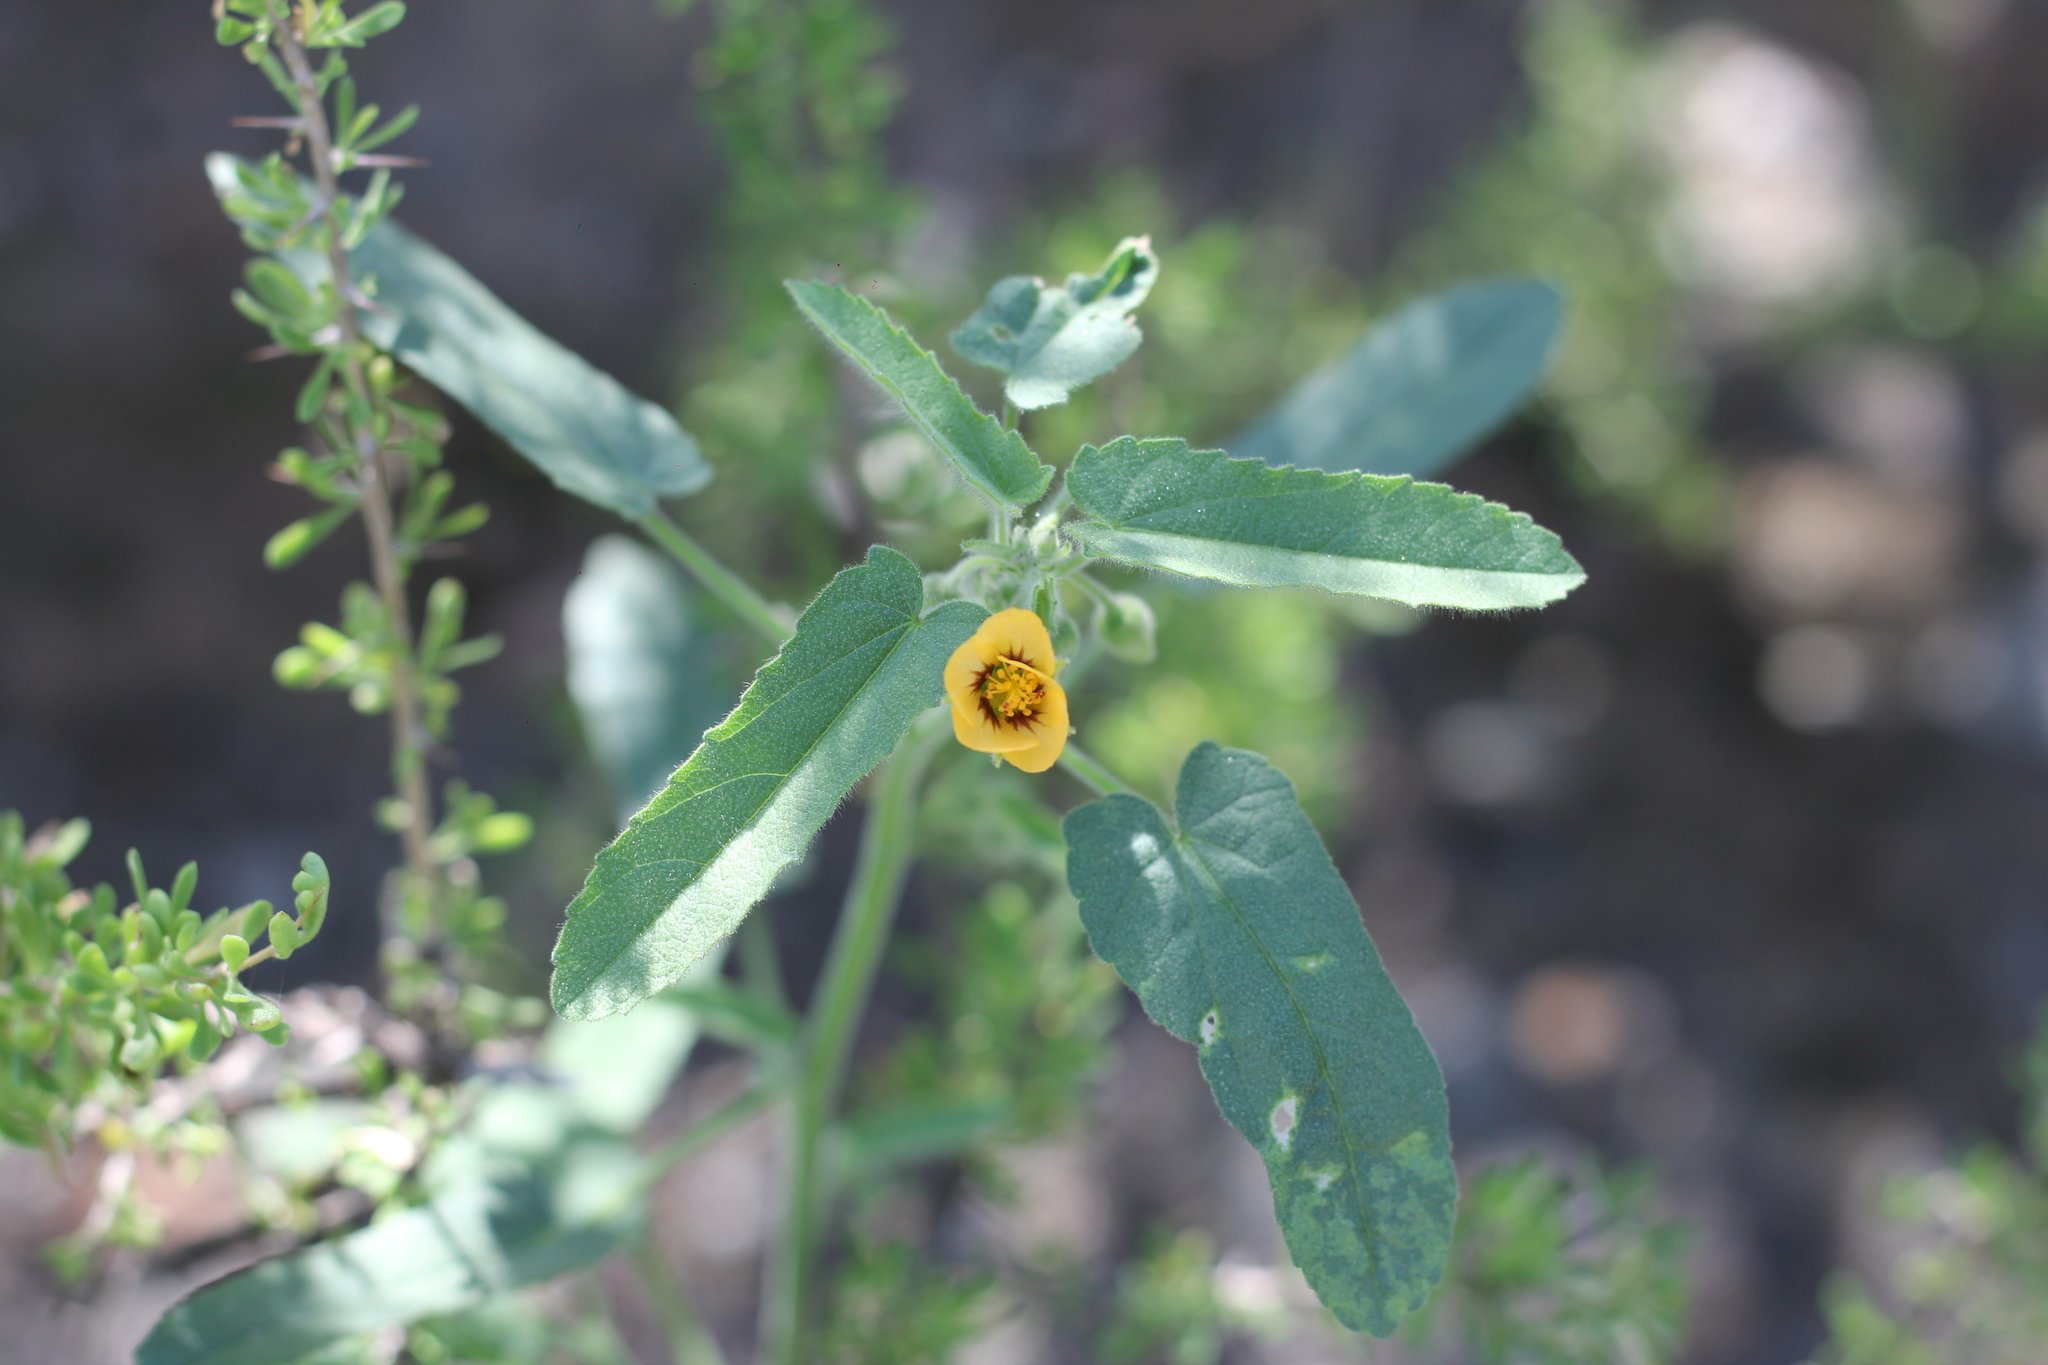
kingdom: Plantae
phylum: Tracheophyta
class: Magnoliopsida
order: Malvales
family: Malvaceae
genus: Gaya
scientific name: Gaya parviflora
